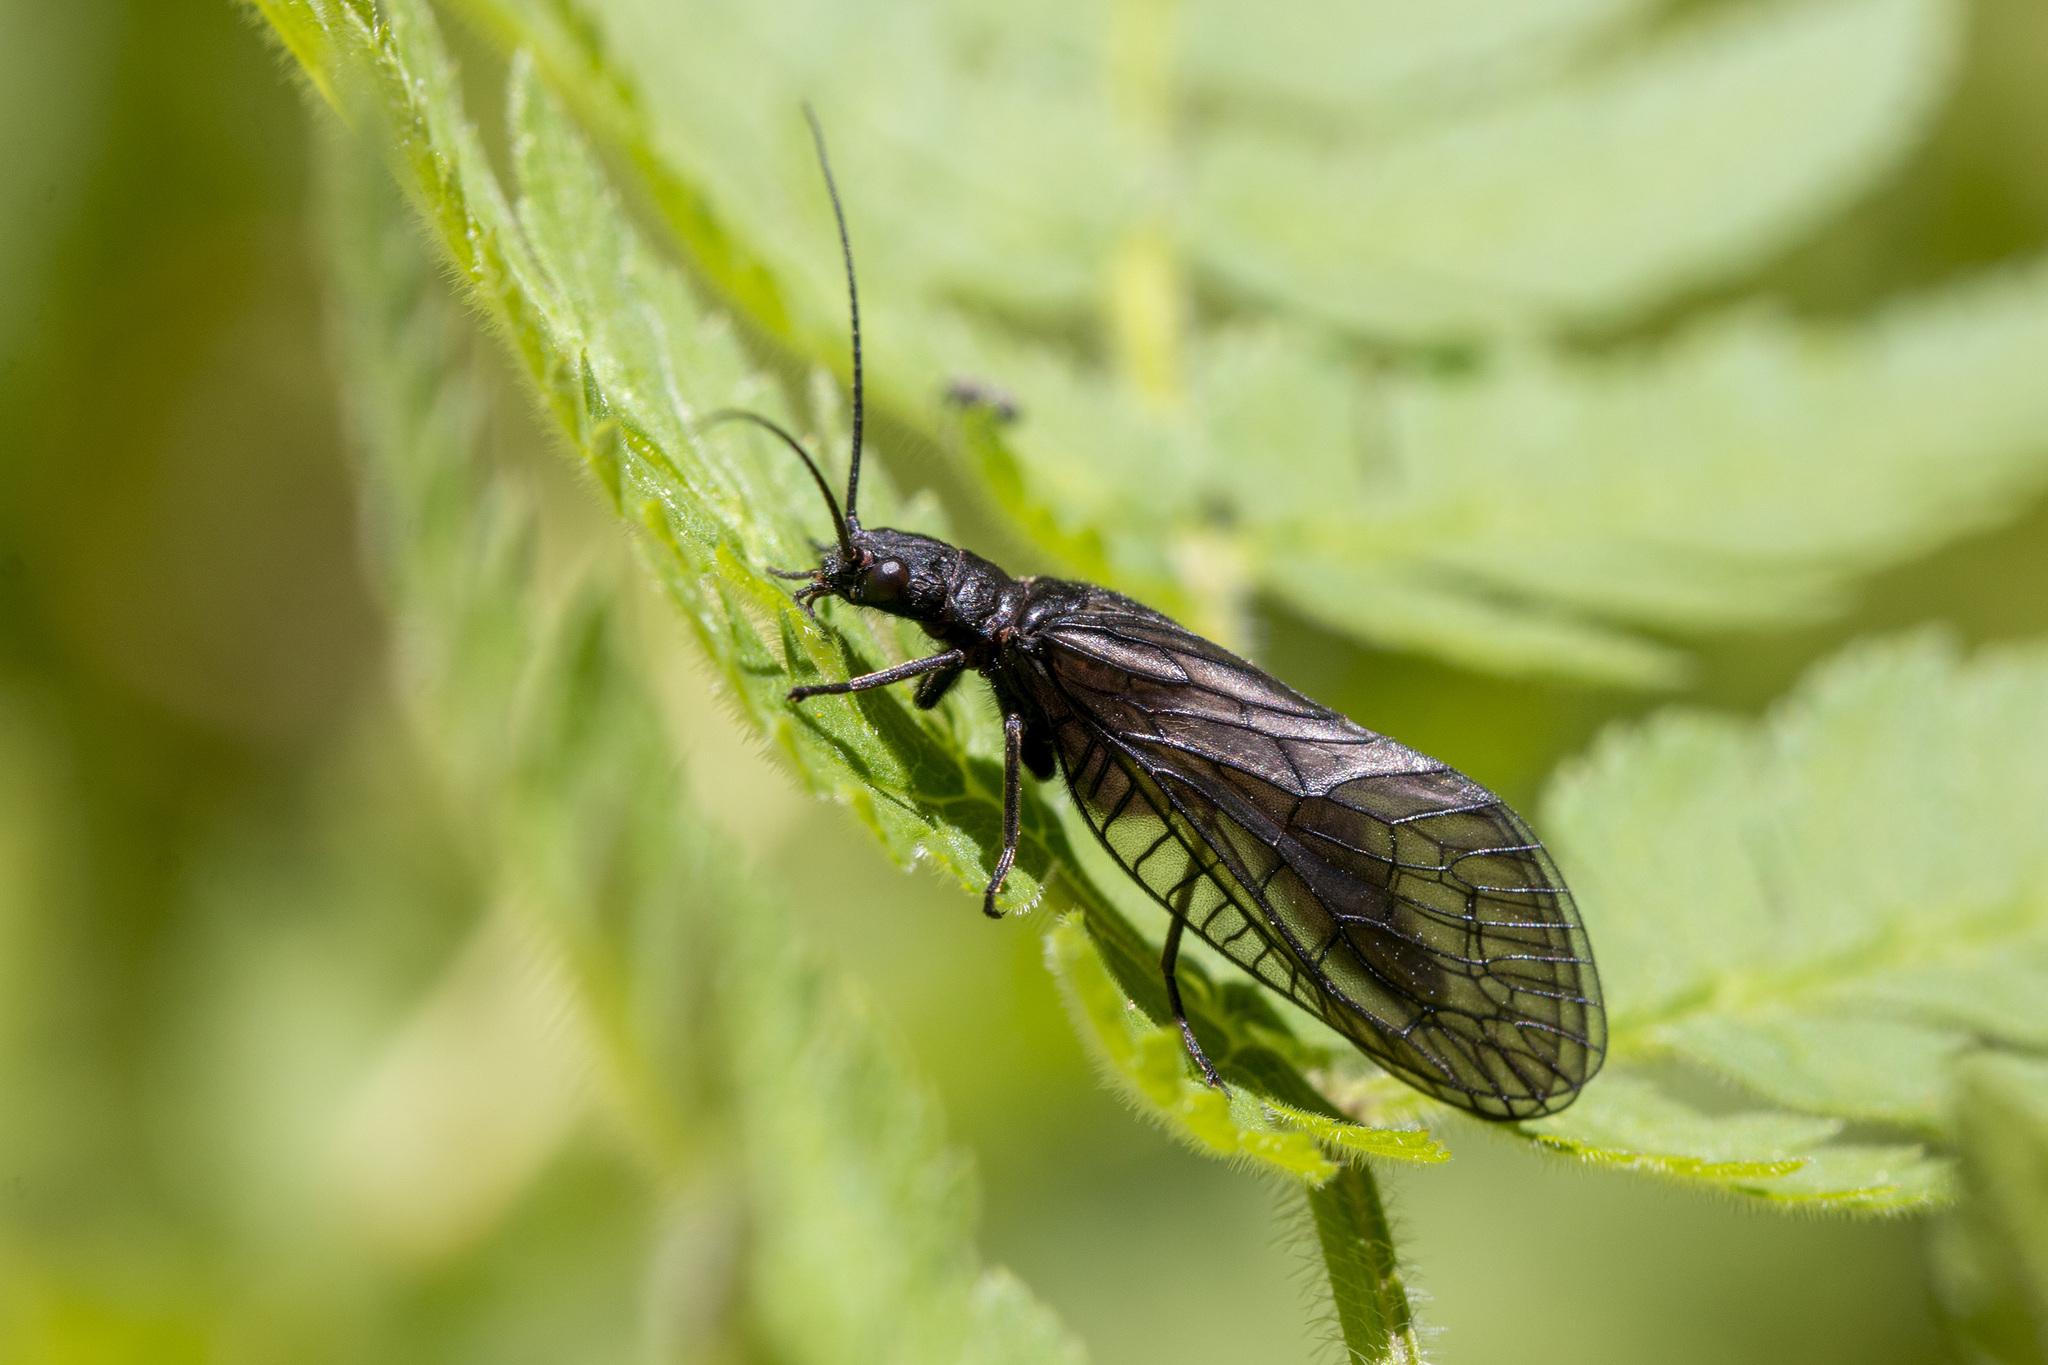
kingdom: Animalia
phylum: Arthropoda
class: Insecta
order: Megaloptera
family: Sialidae
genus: Sialis
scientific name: Sialis
